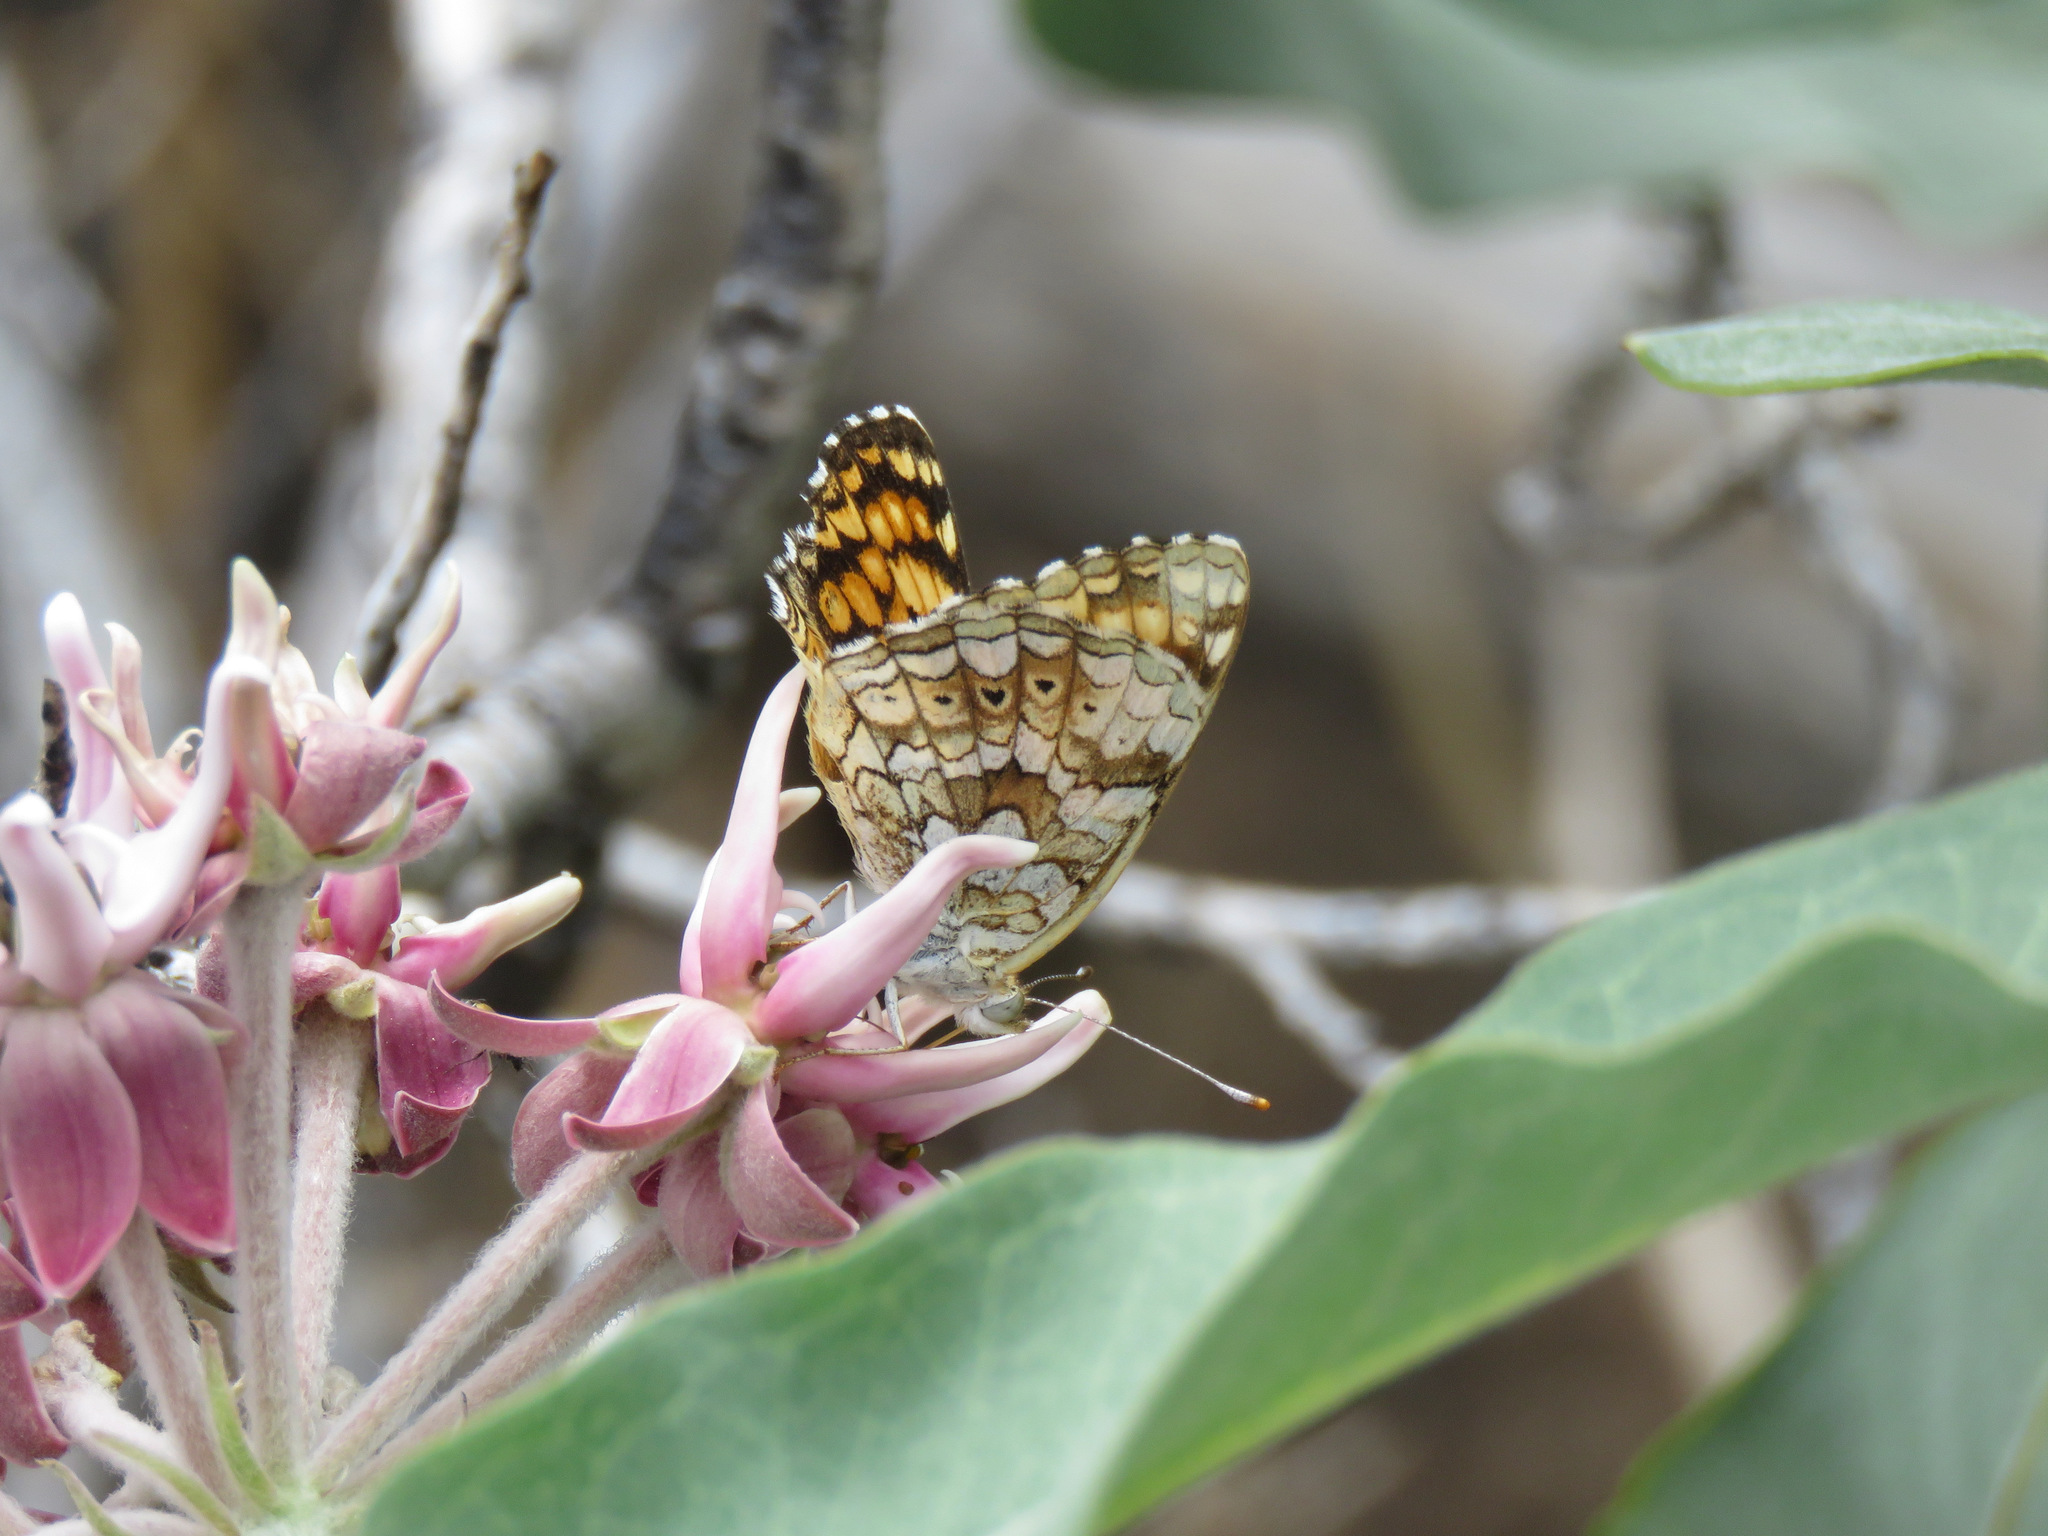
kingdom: Animalia
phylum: Arthropoda
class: Insecta
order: Lepidoptera
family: Nymphalidae
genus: Phyciodes
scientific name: Phyciodes pallida
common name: Pale crescent
